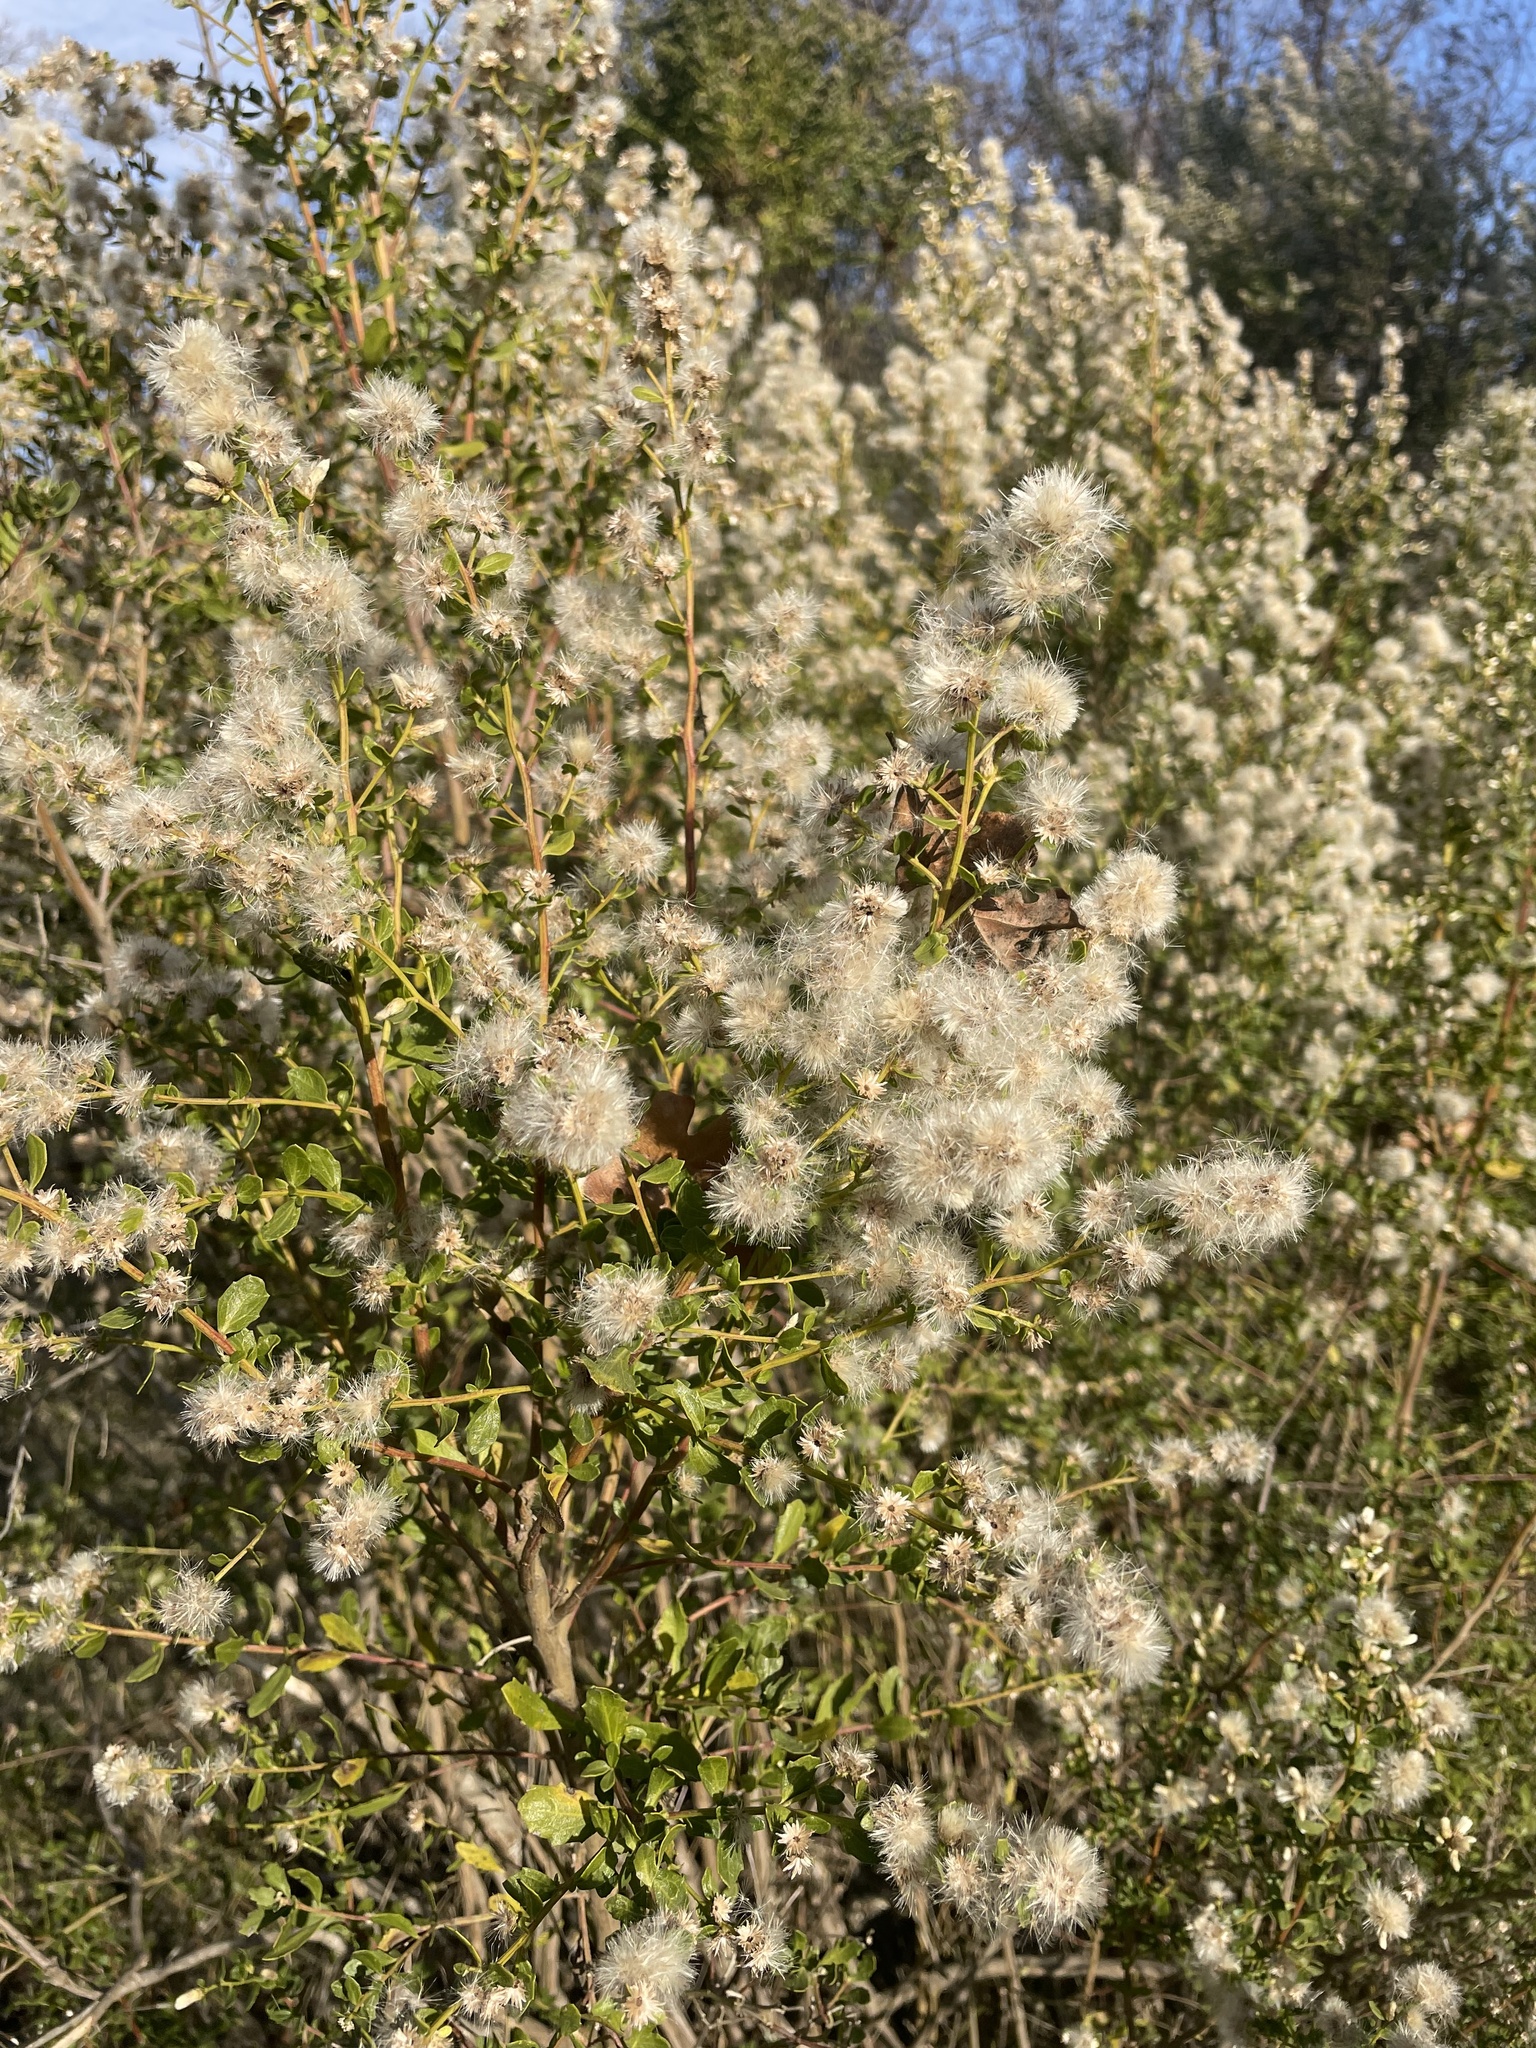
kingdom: Plantae
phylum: Tracheophyta
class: Magnoliopsida
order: Asterales
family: Asteraceae
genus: Baccharis
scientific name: Baccharis pilularis
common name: Coyotebrush
